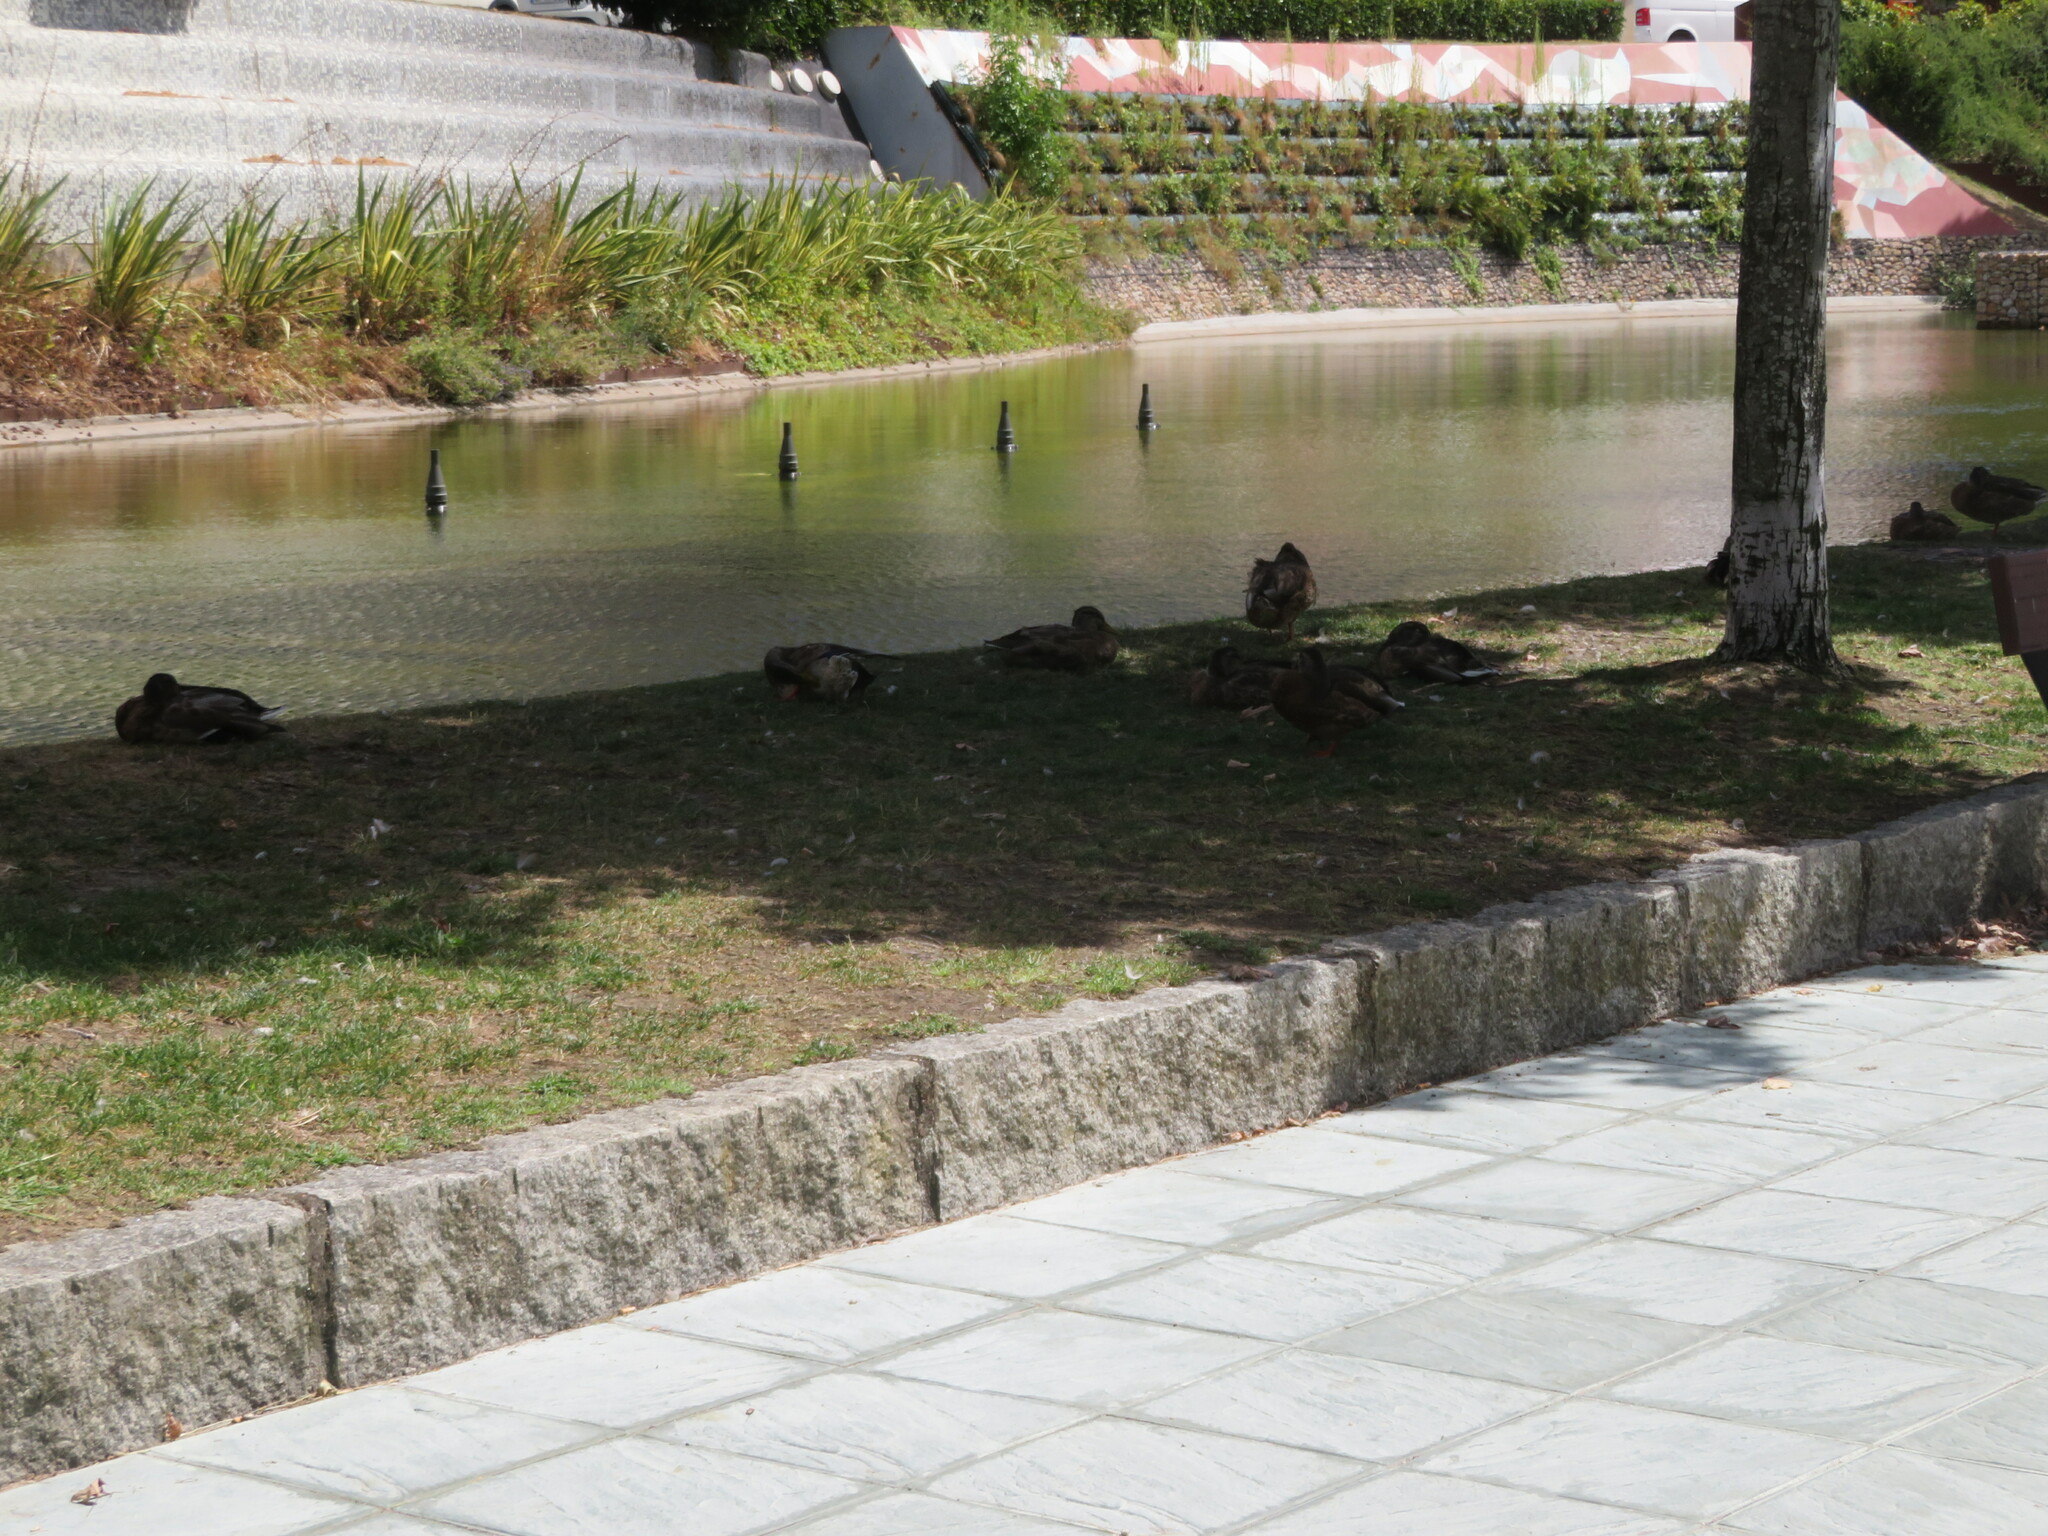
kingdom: Animalia
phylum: Chordata
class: Aves
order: Anseriformes
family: Anatidae
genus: Anas
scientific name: Anas platyrhynchos
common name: Mallard
